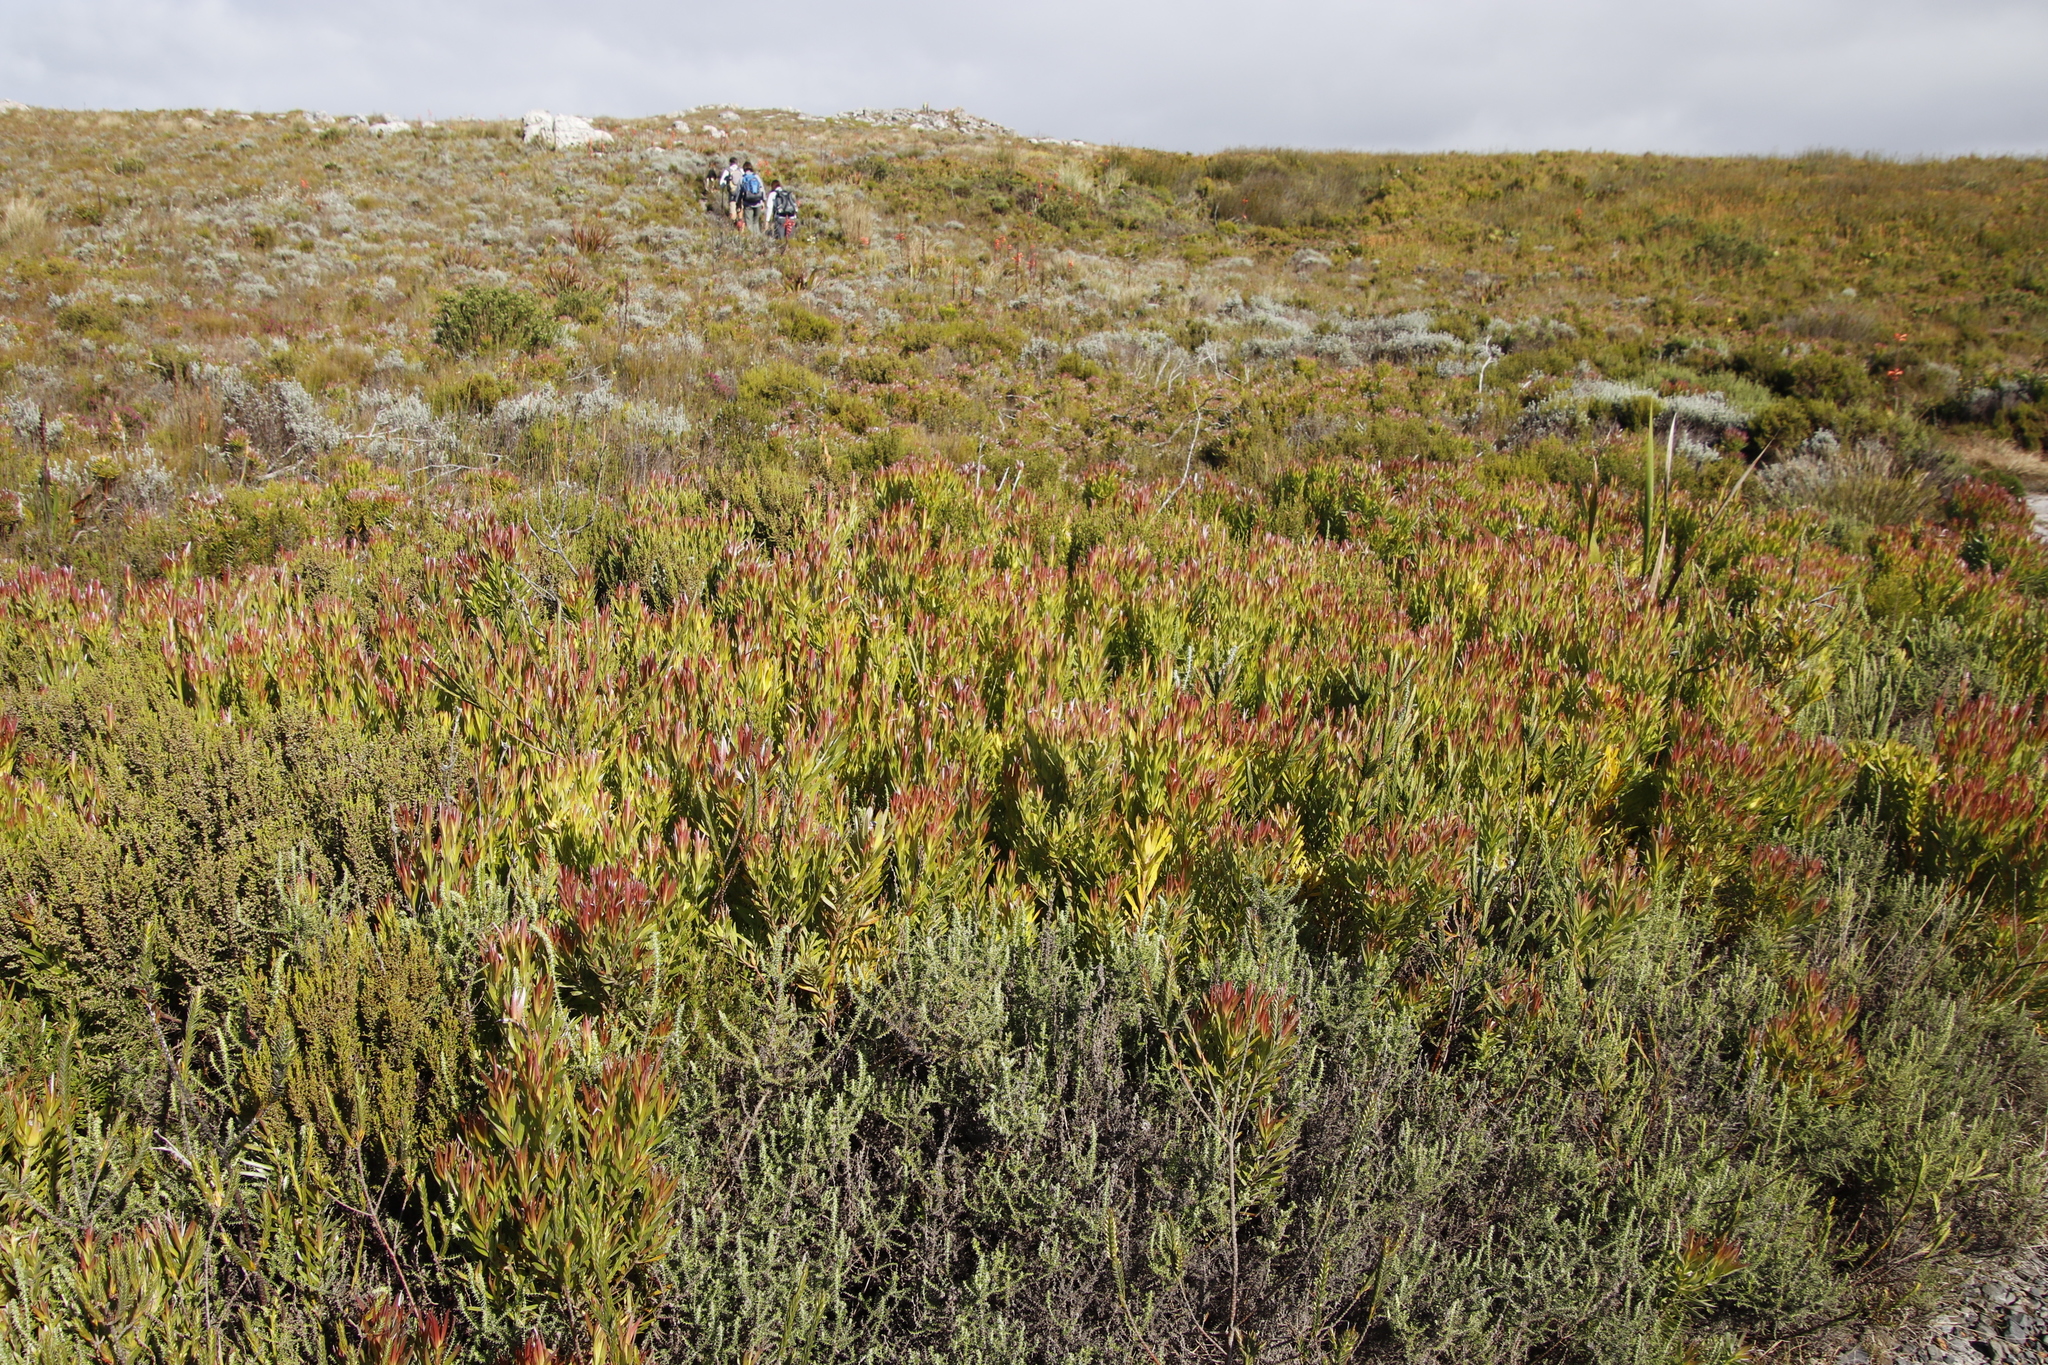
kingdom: Plantae
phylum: Tracheophyta
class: Magnoliopsida
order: Proteales
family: Proteaceae
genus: Leucadendron
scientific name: Leucadendron xanthoconus
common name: Sickle-leaf conebush
